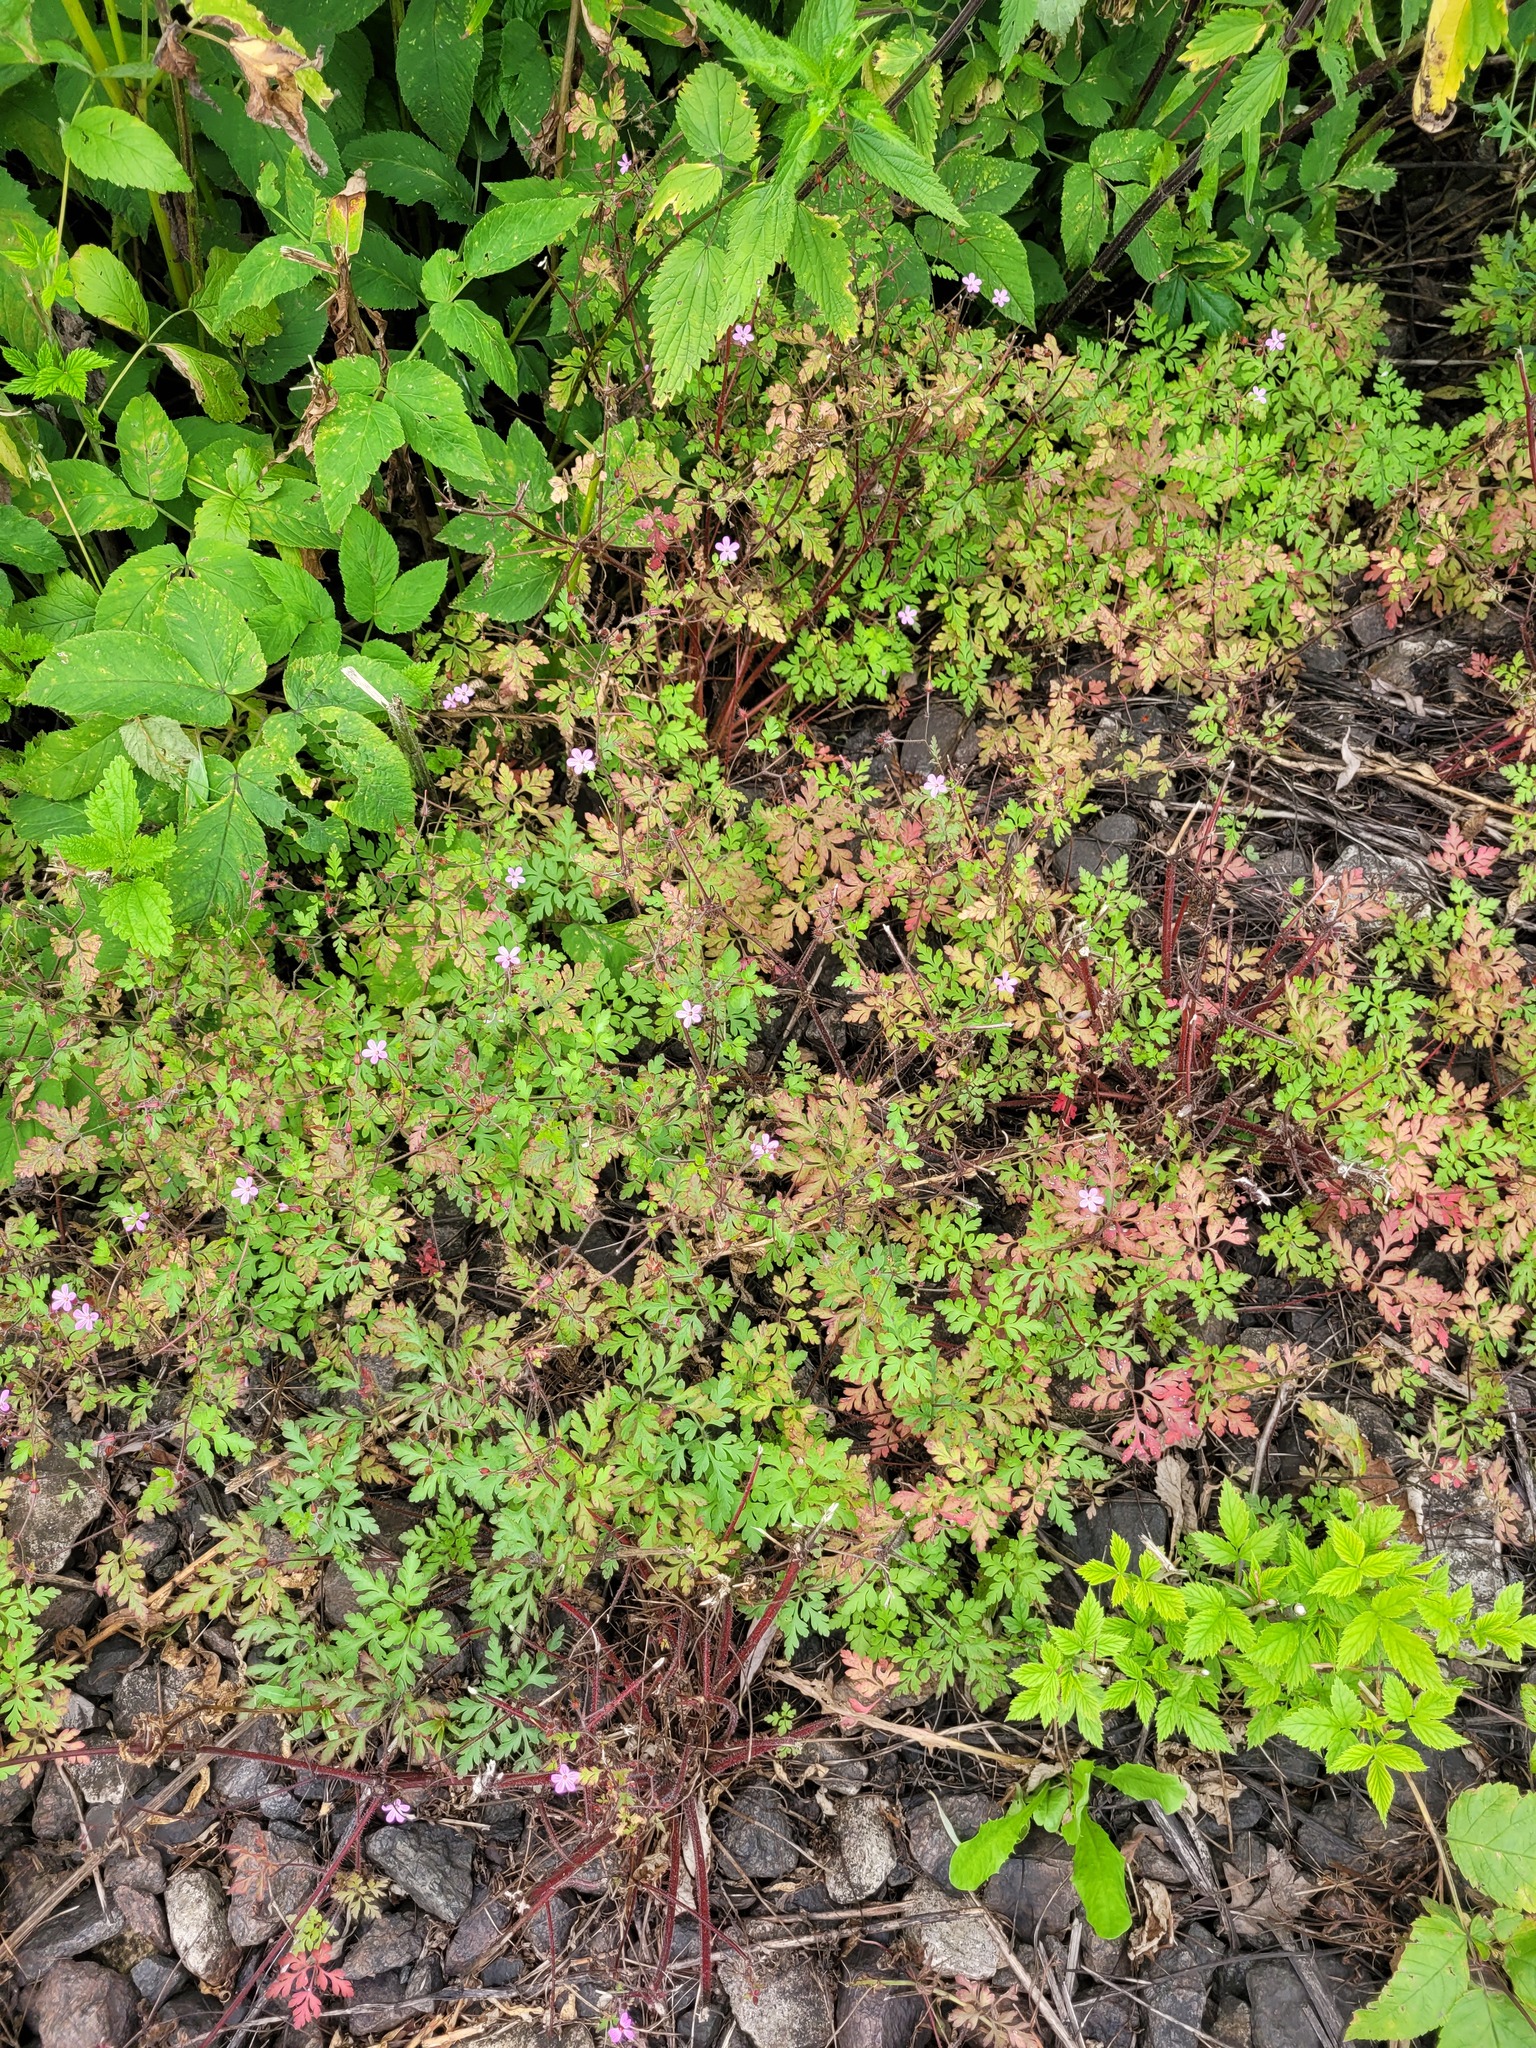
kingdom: Plantae
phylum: Tracheophyta
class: Magnoliopsida
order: Geraniales
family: Geraniaceae
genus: Geranium
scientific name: Geranium robertianum
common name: Herb-robert
